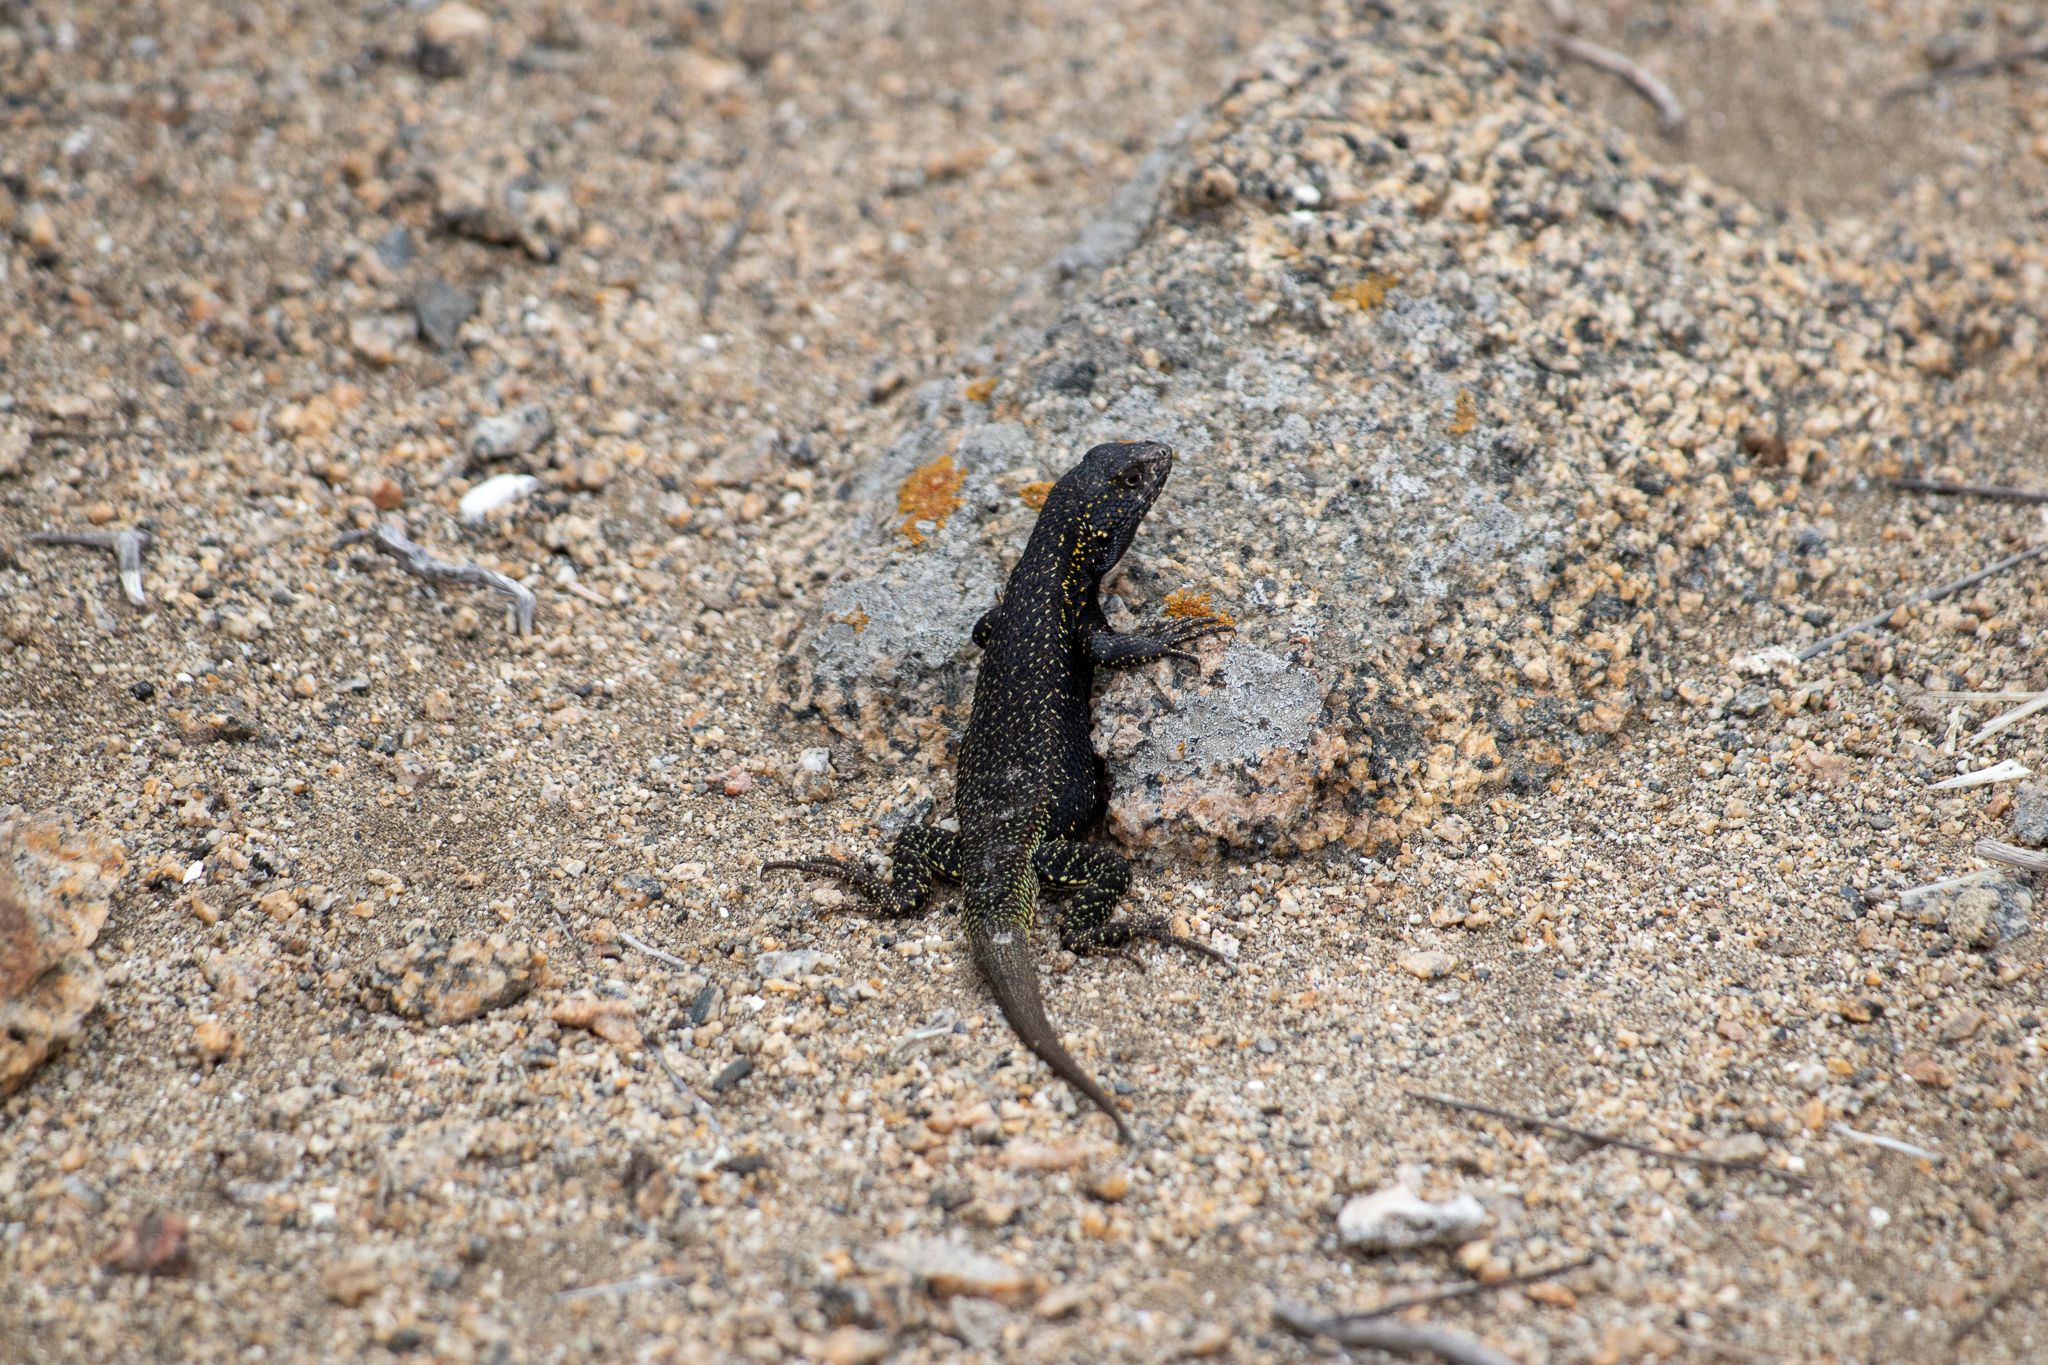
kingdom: Animalia
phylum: Chordata
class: Squamata
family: Liolaemidae
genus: Liolaemus
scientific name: Liolaemus silvai
